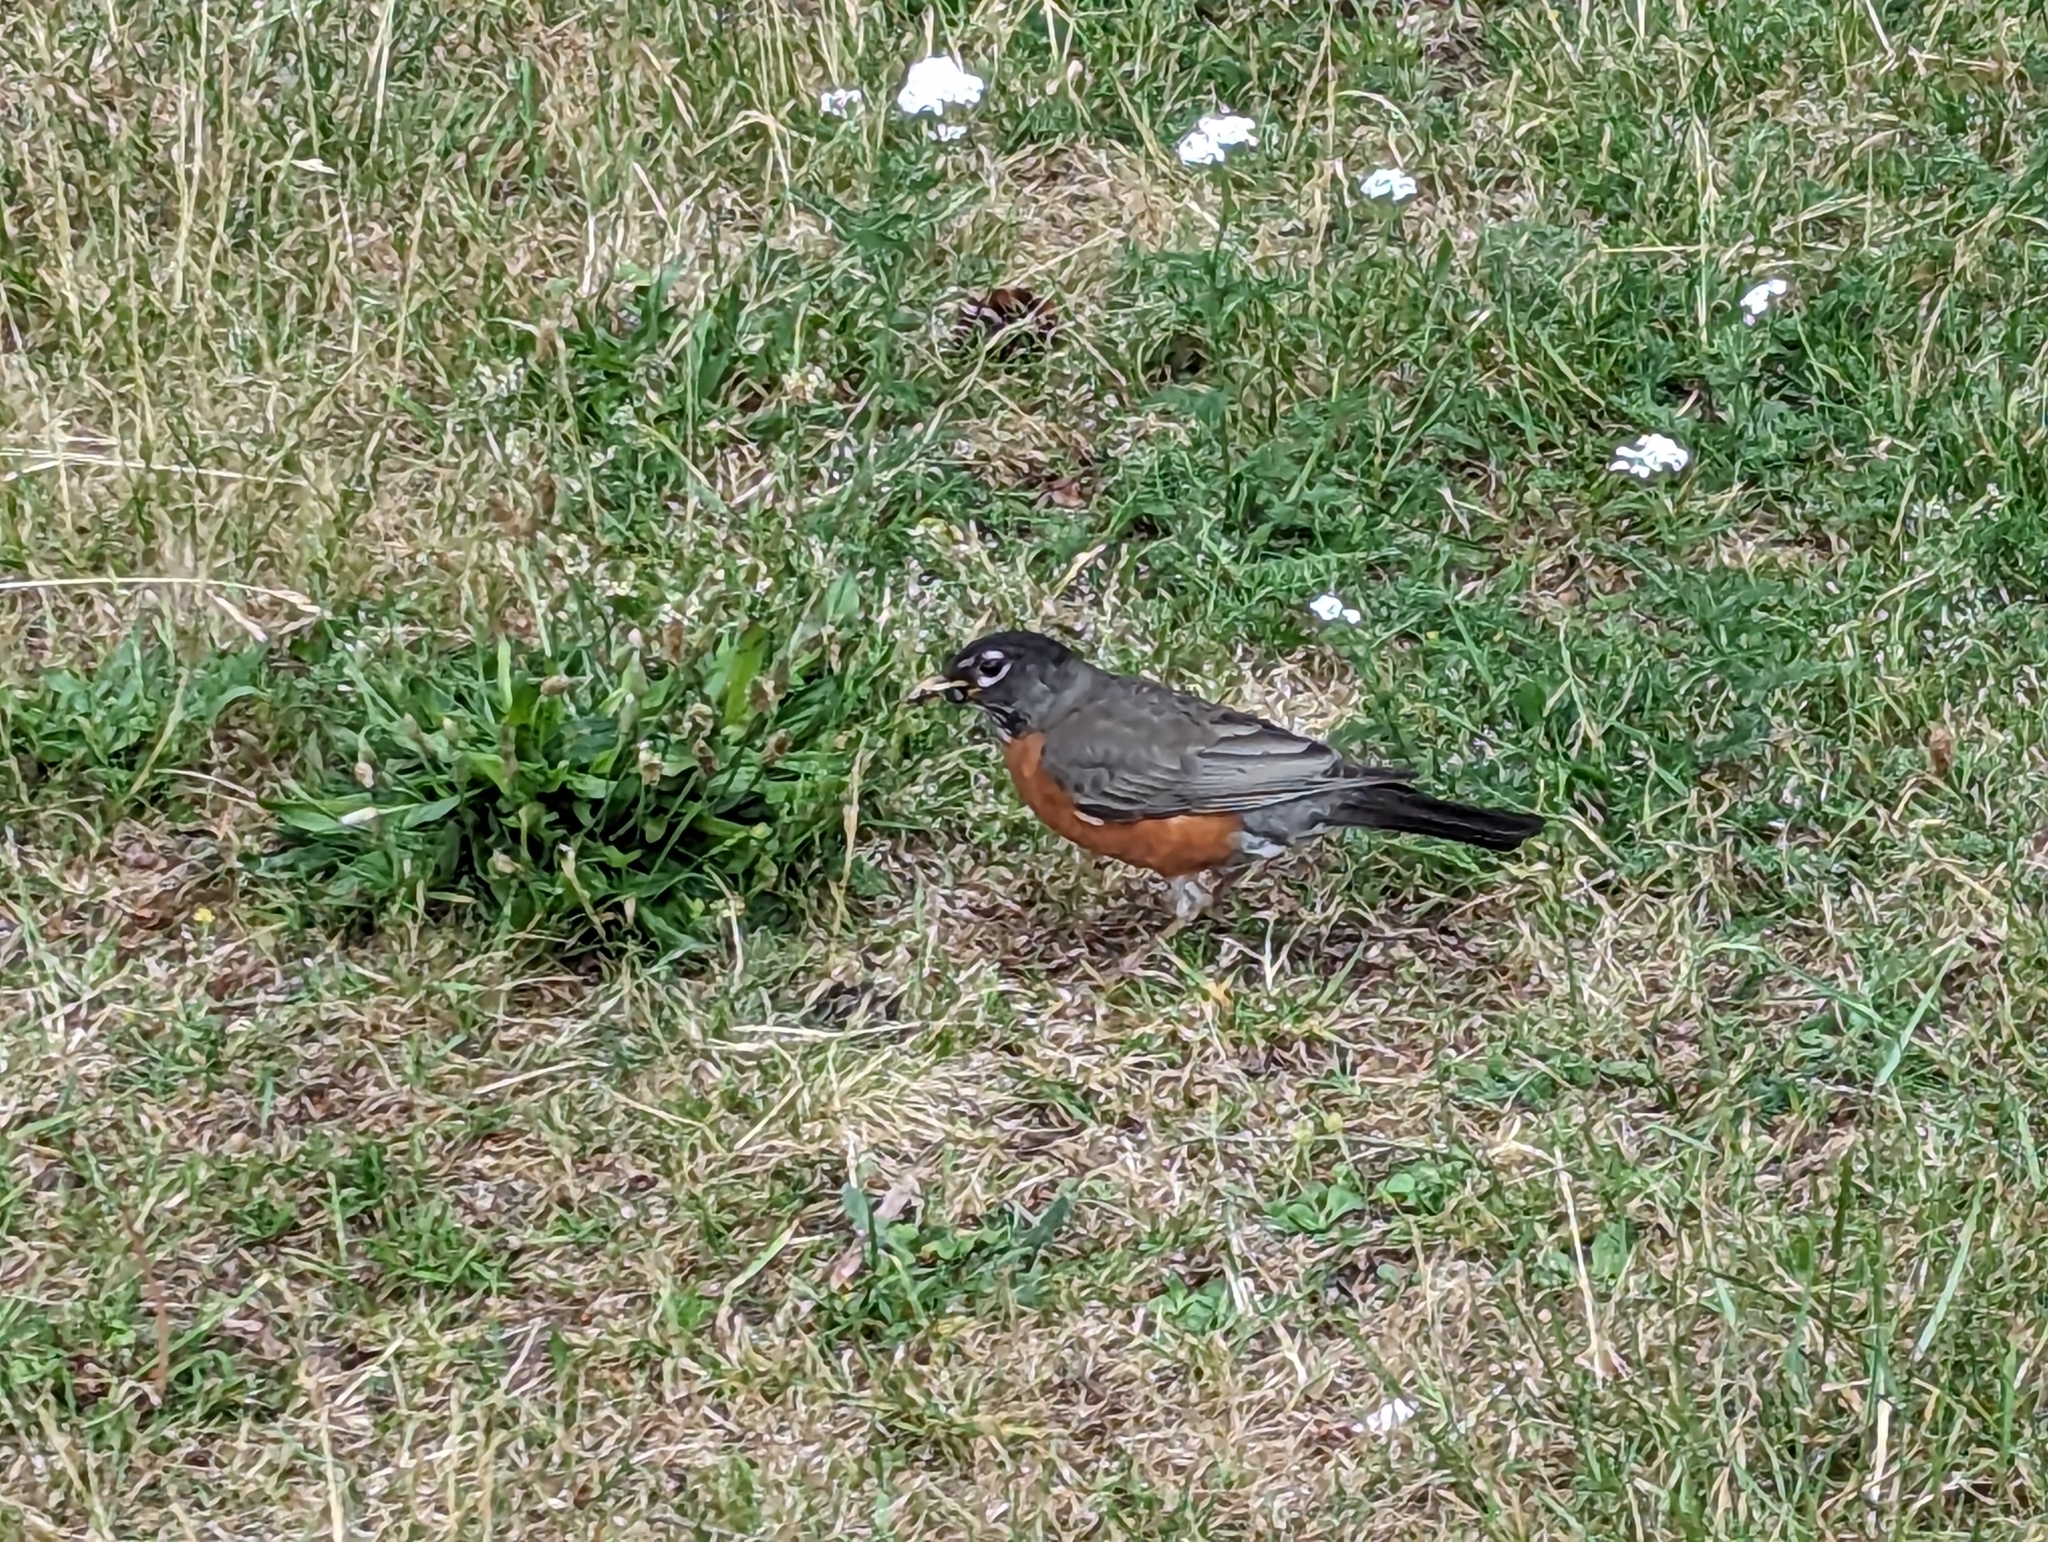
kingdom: Animalia
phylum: Chordata
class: Aves
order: Passeriformes
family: Turdidae
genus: Turdus
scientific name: Turdus migratorius
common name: American robin
